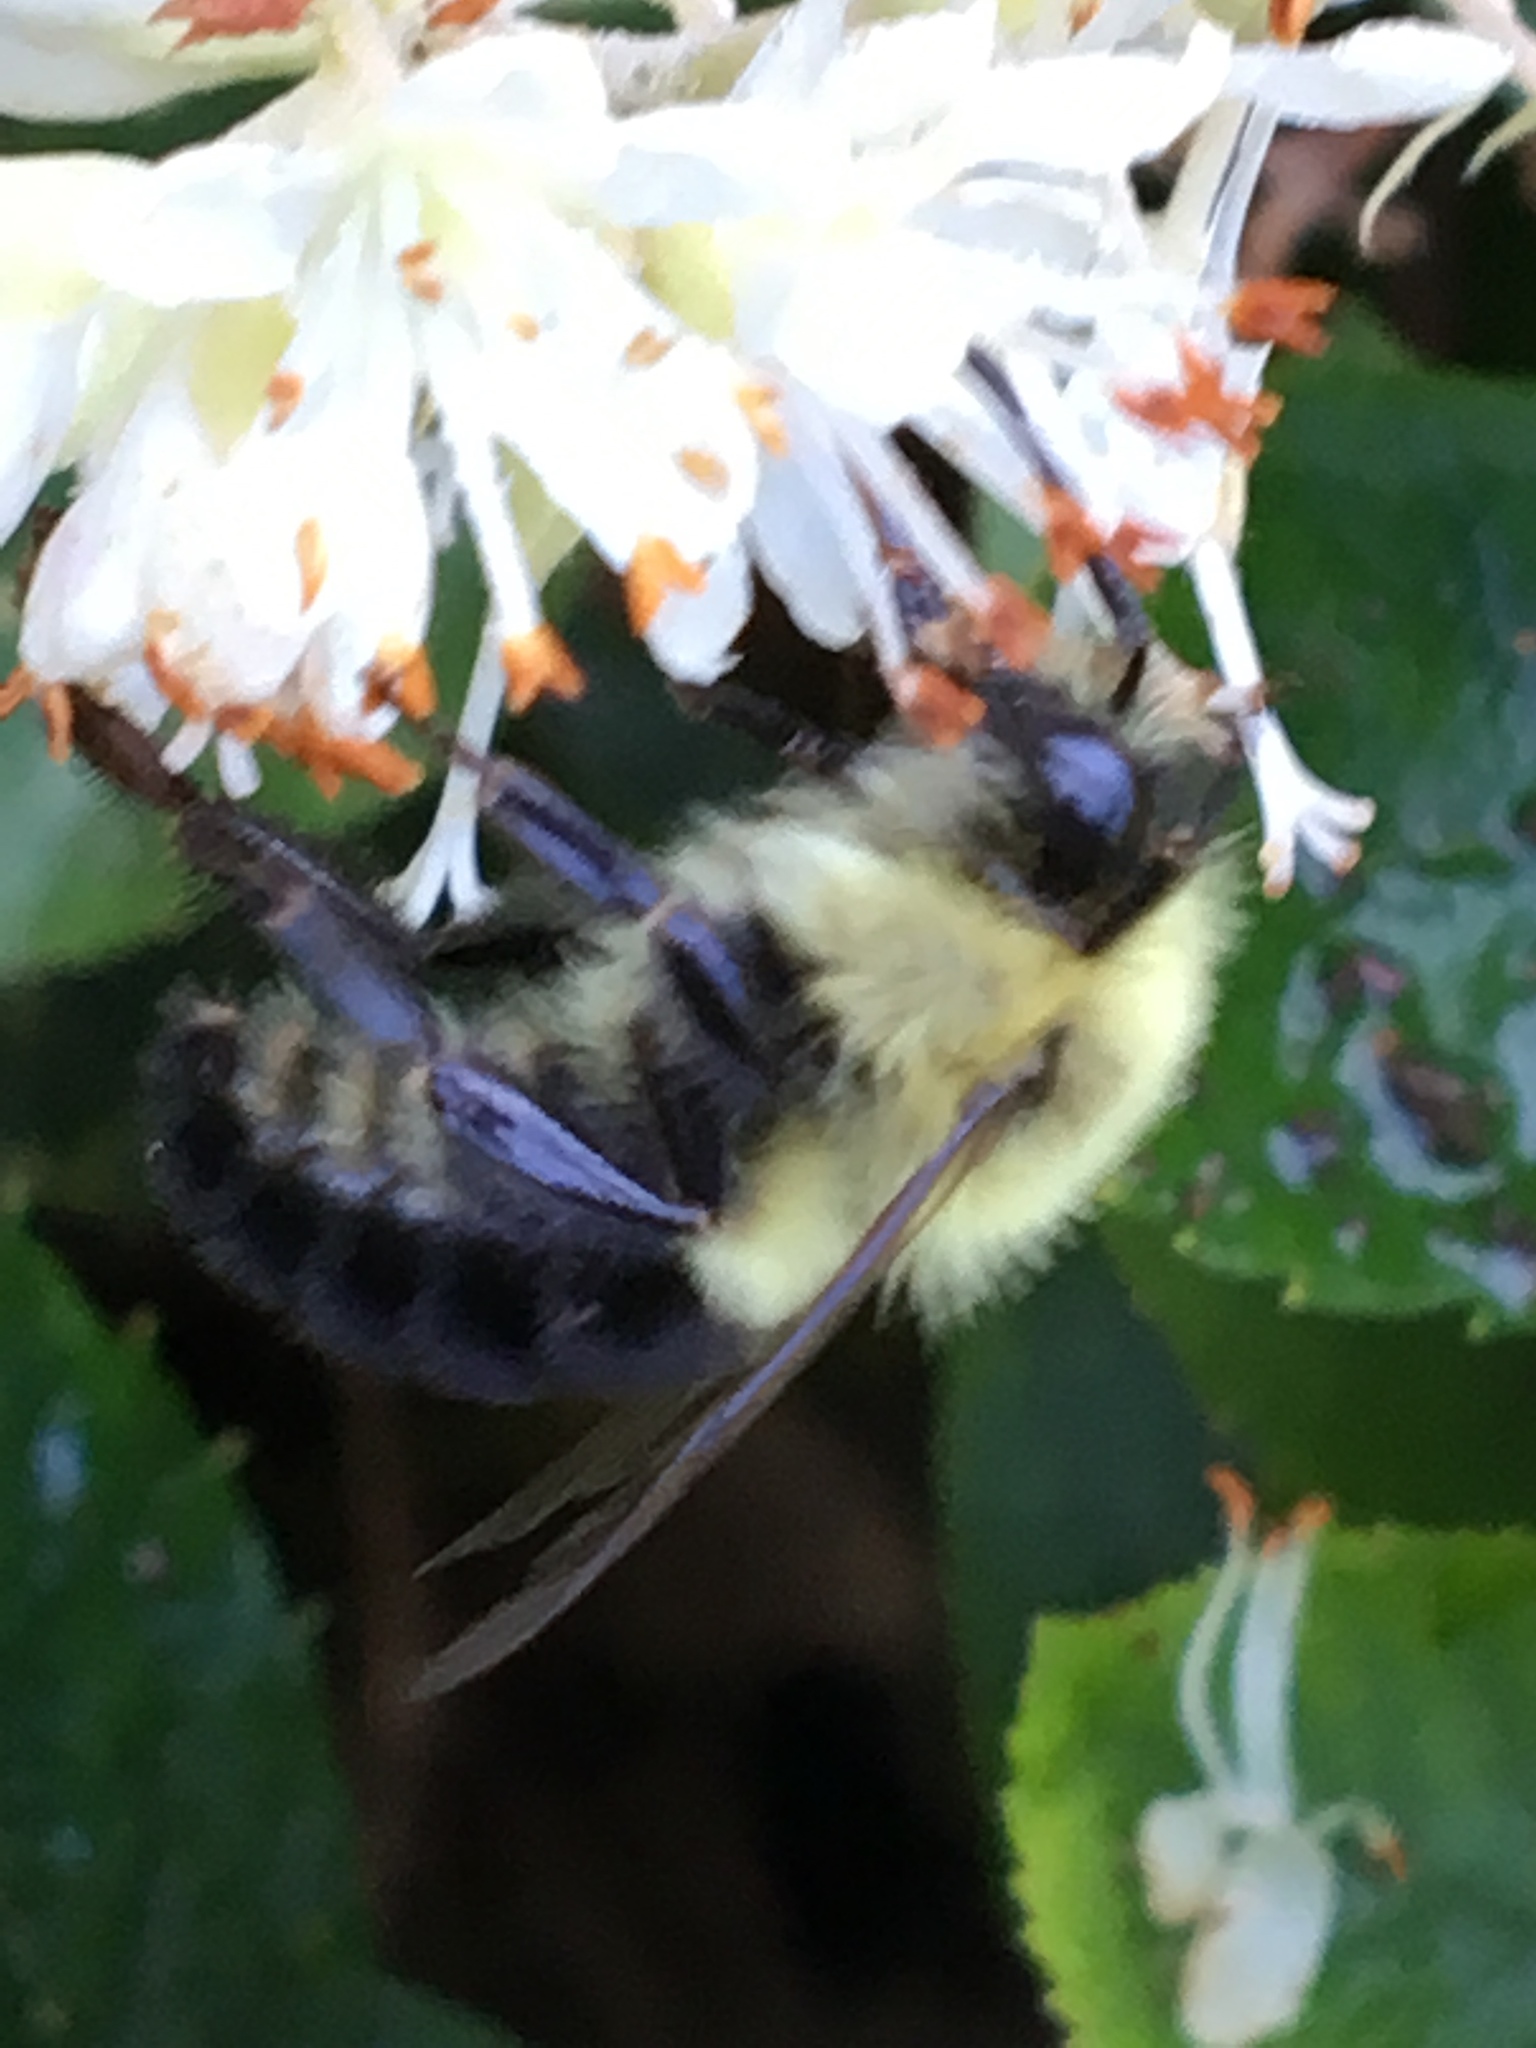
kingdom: Animalia
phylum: Arthropoda
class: Insecta
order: Hymenoptera
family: Apidae
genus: Bombus
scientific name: Bombus impatiens
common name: Common eastern bumble bee
